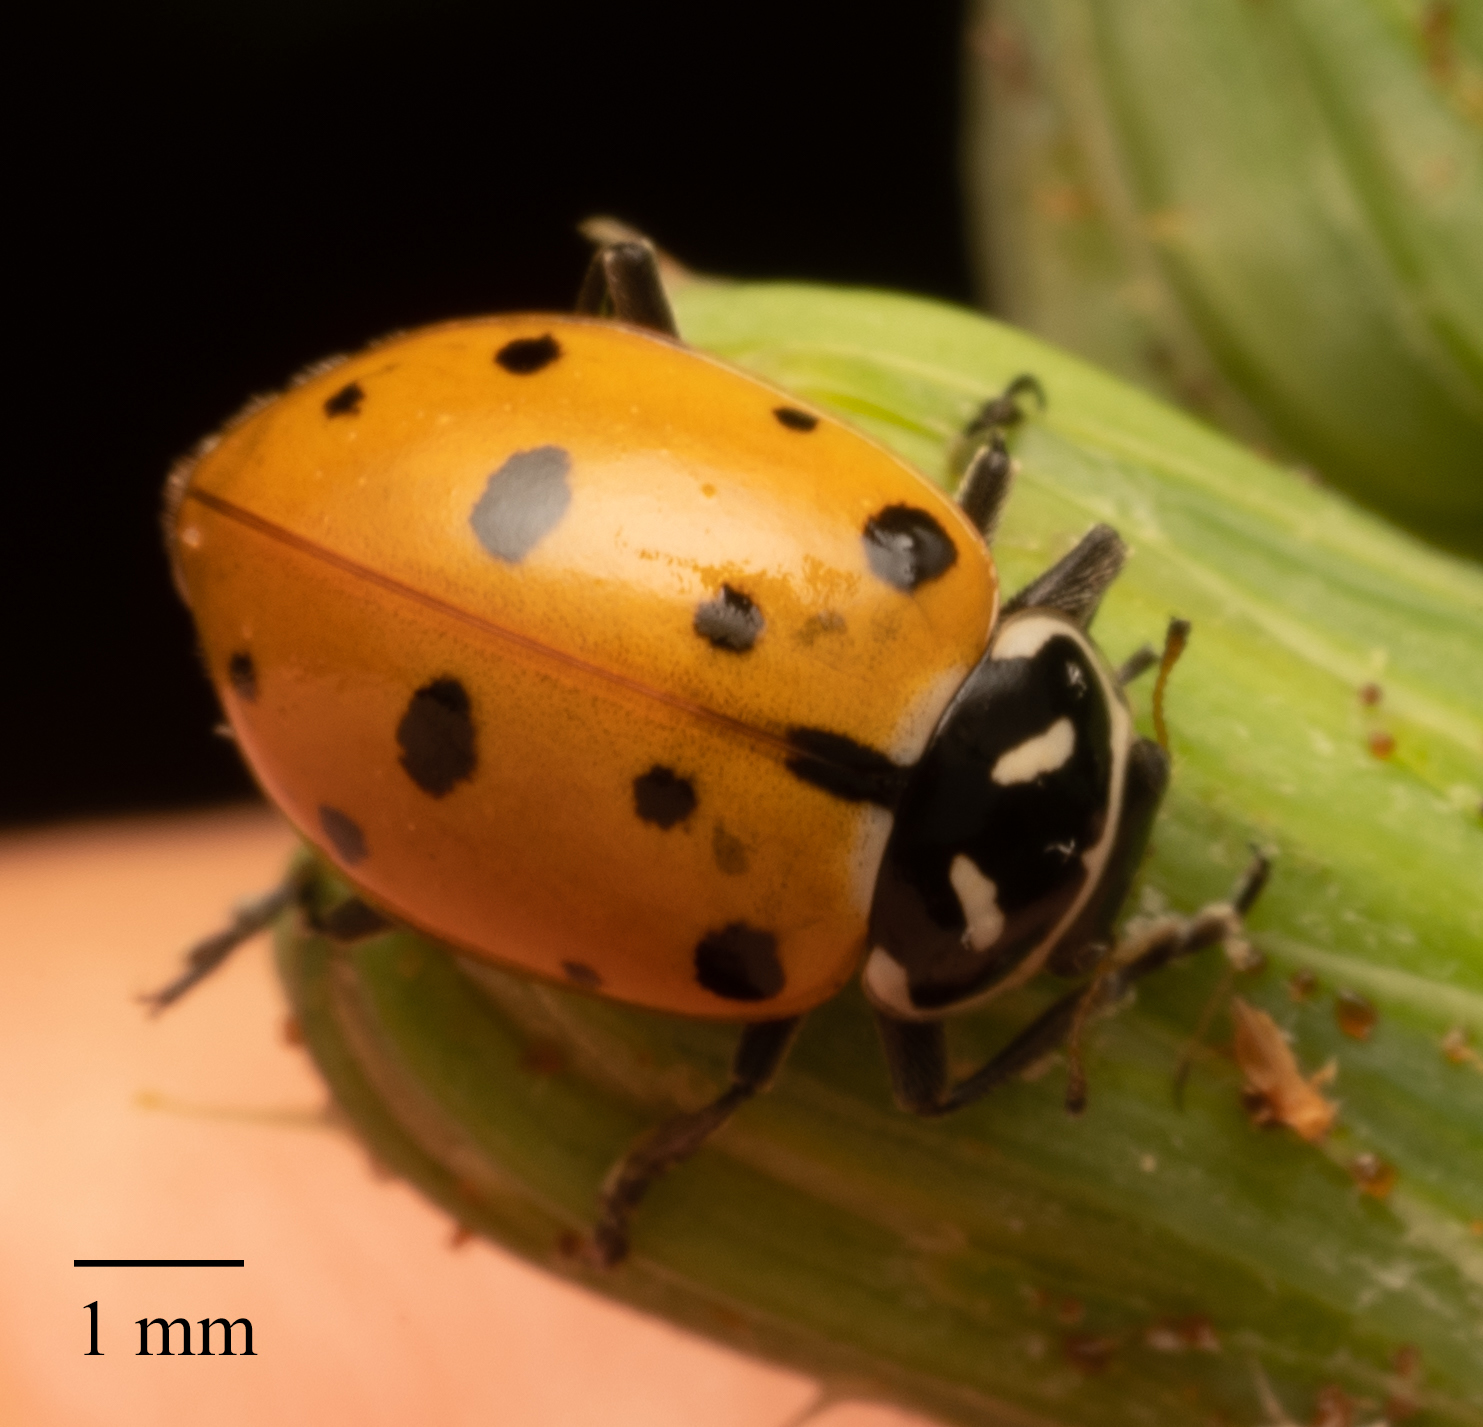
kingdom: Animalia
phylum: Arthropoda
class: Insecta
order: Coleoptera
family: Coccinellidae
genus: Hippodamia
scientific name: Hippodamia convergens
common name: Convergent lady beetle
